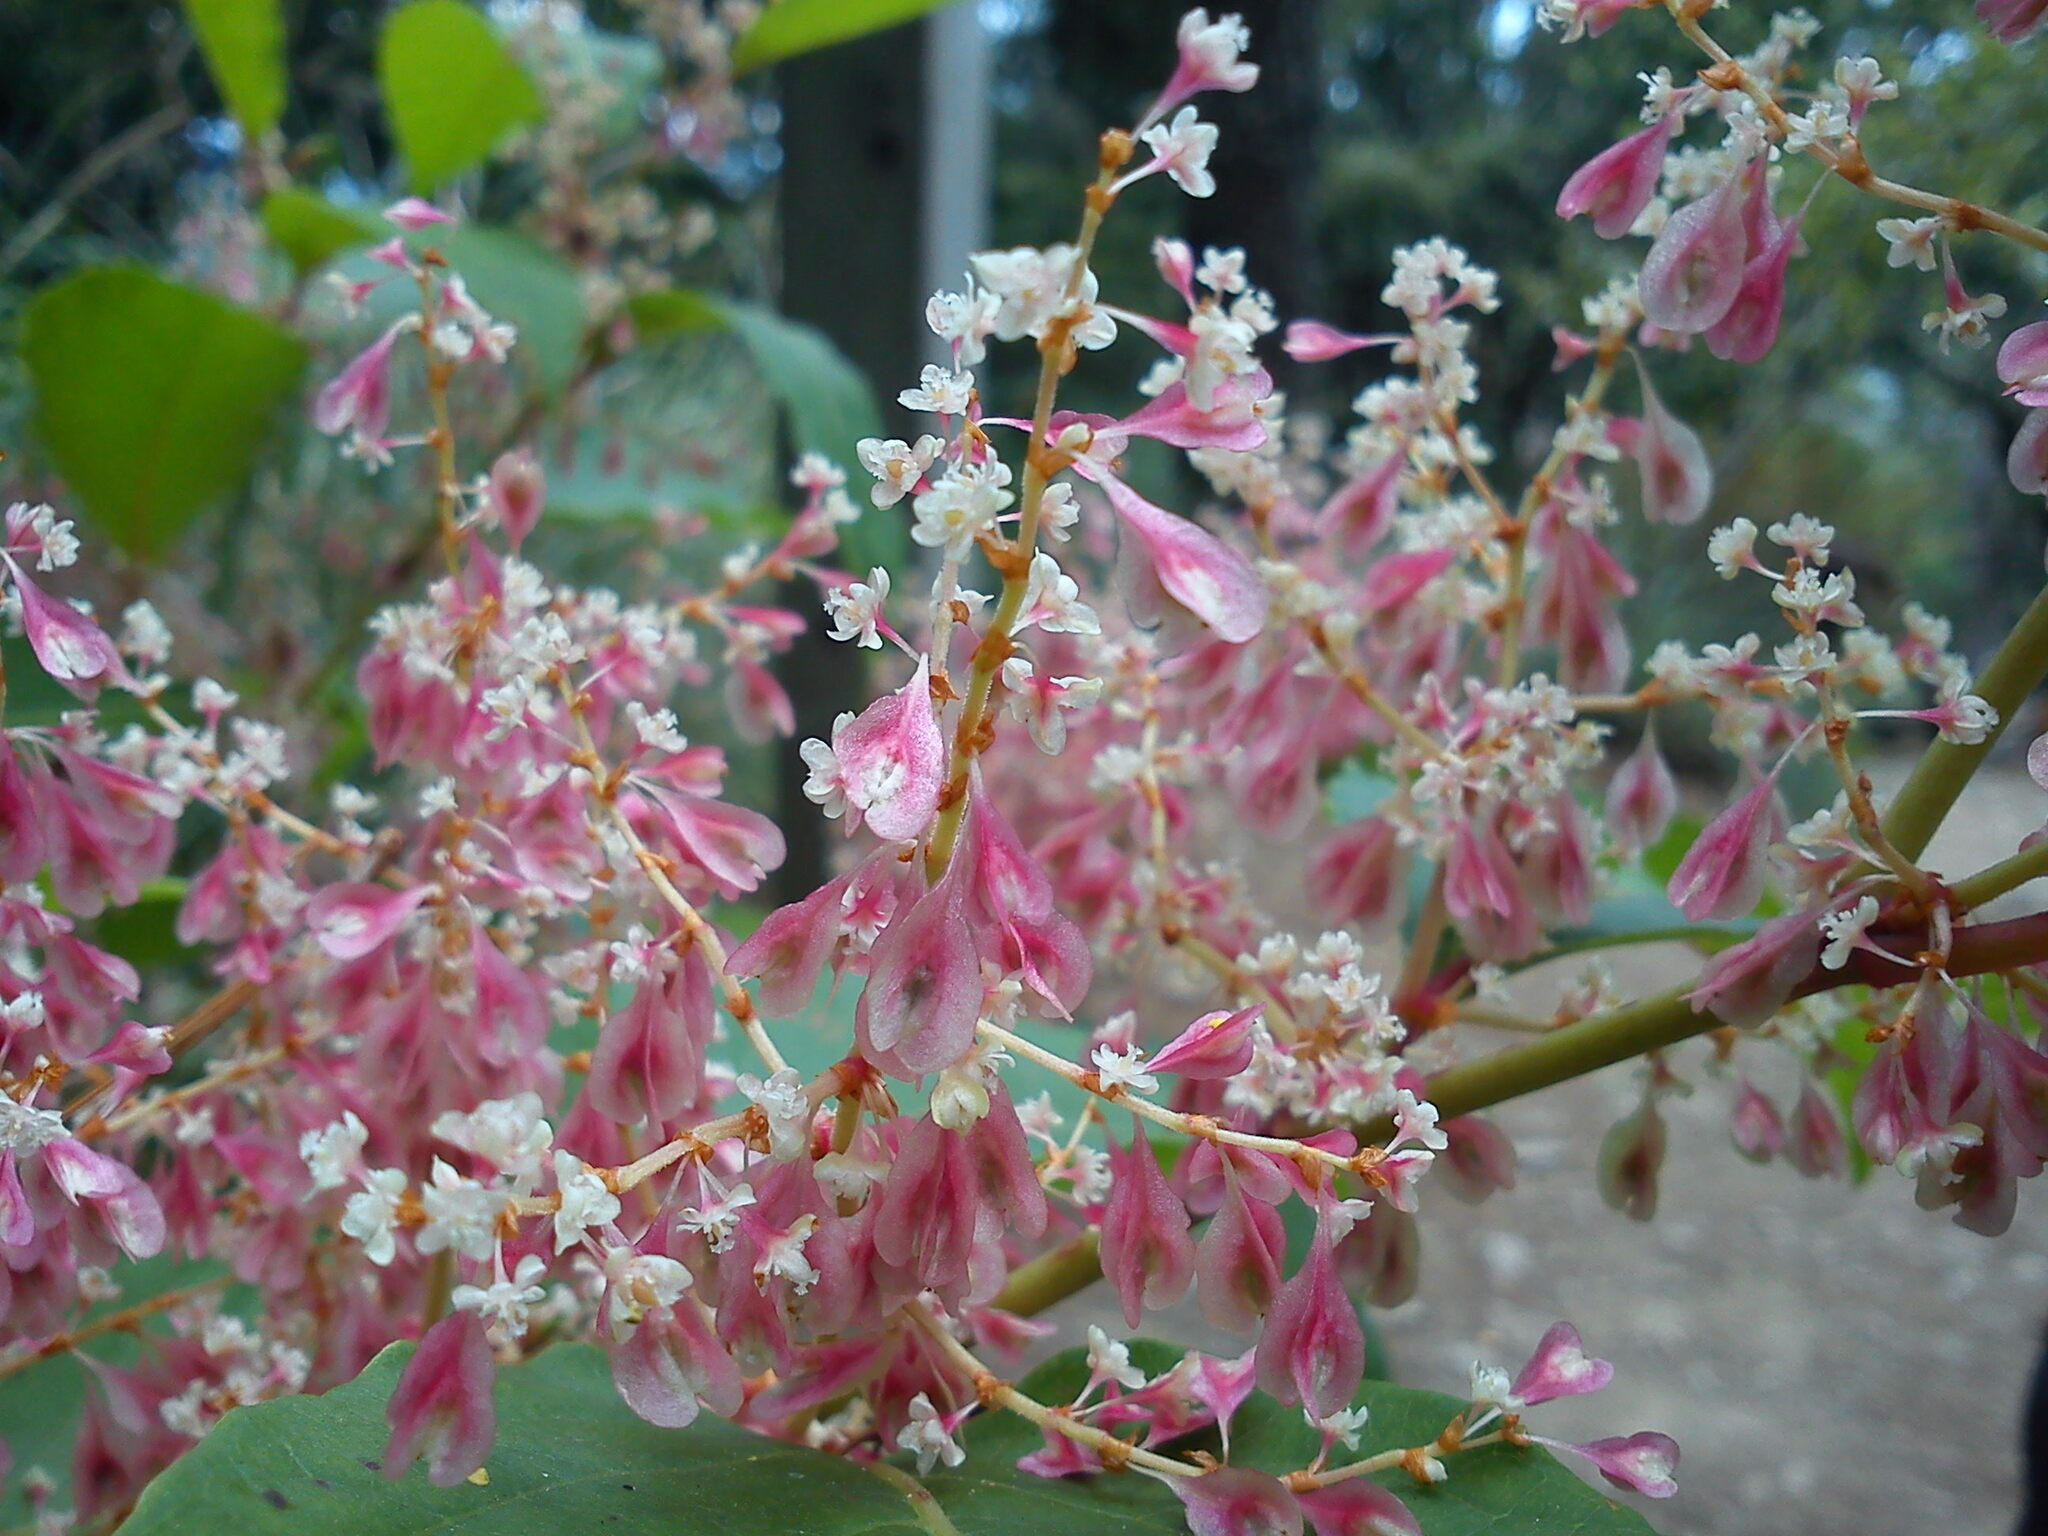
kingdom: Plantae
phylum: Tracheophyta
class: Magnoliopsida
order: Caryophyllales
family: Polygonaceae
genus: Reynoutria
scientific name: Reynoutria japonica
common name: Japanese knotweed
